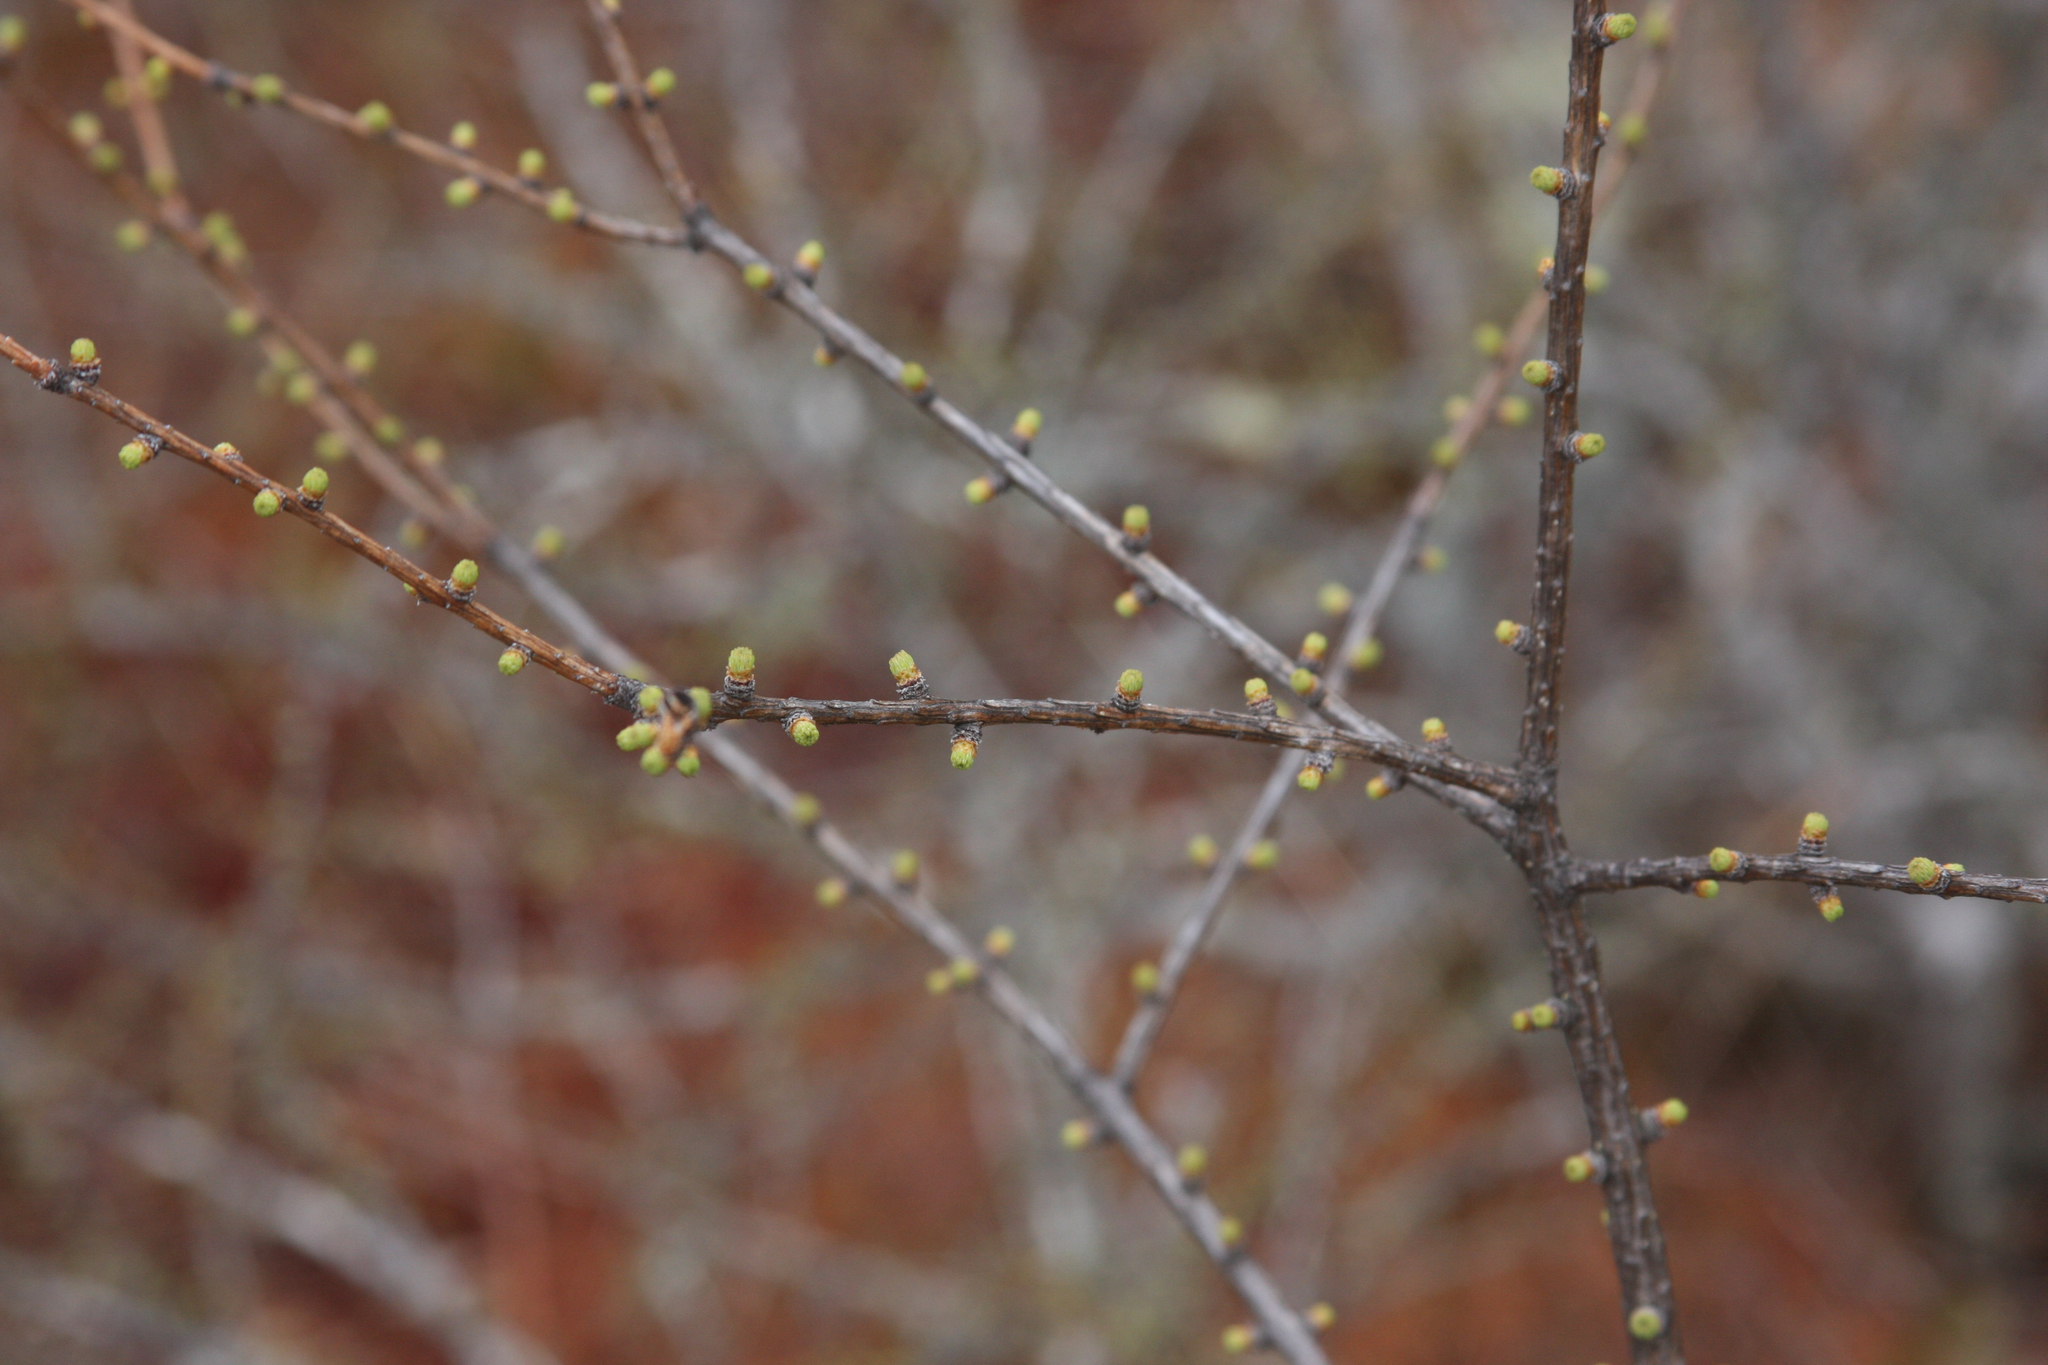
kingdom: Plantae
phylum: Tracheophyta
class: Pinopsida
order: Pinales
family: Pinaceae
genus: Larix
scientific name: Larix laricina
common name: American larch
